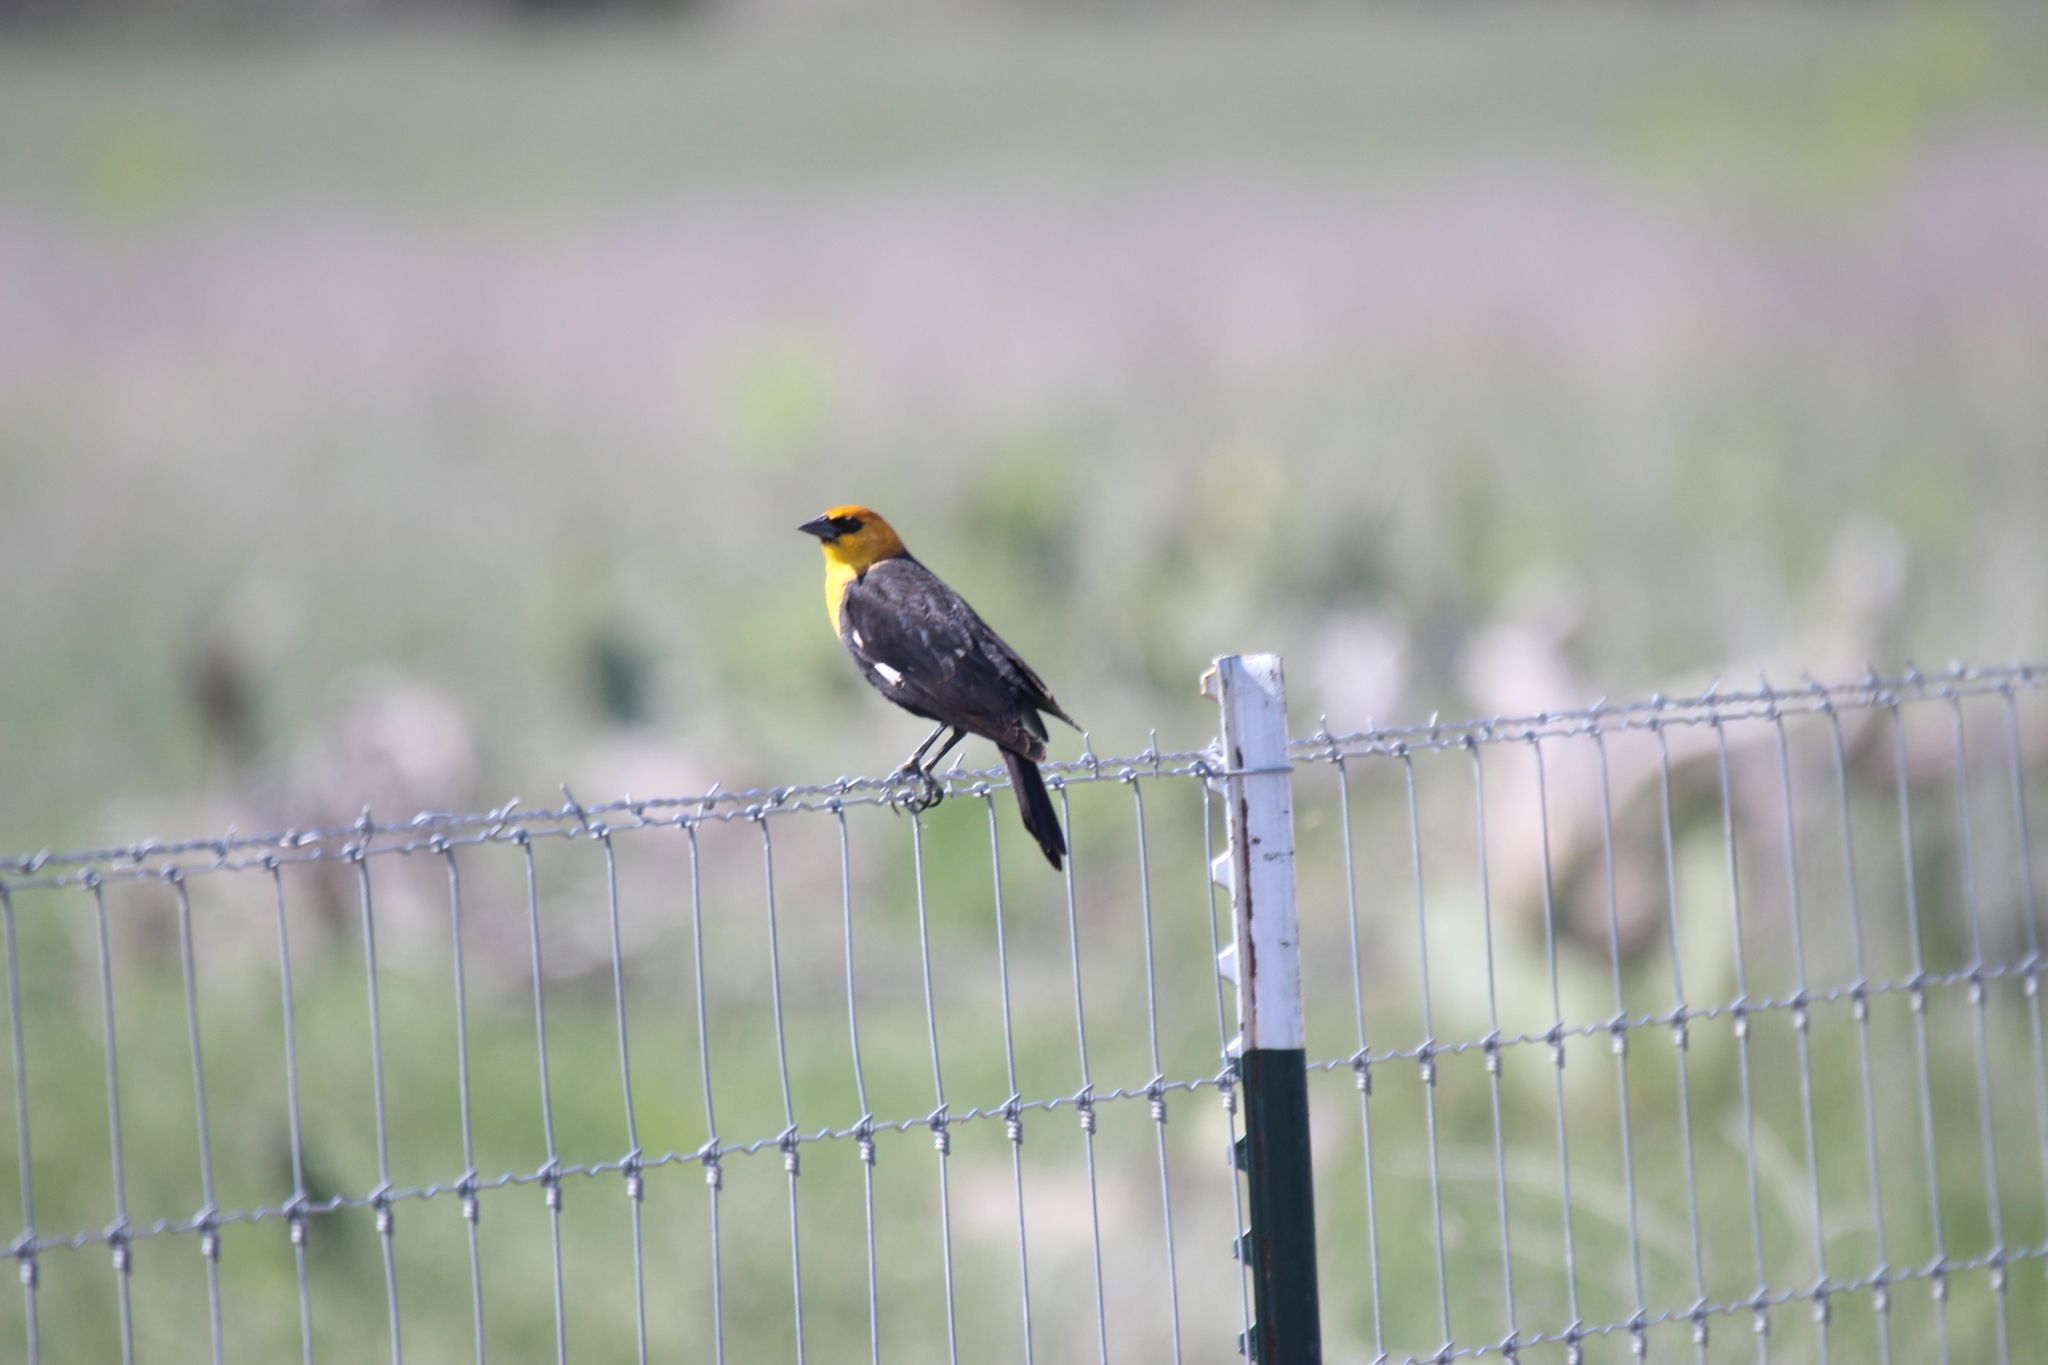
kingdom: Animalia
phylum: Chordata
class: Aves
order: Passeriformes
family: Icteridae
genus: Xanthocephalus
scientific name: Xanthocephalus xanthocephalus
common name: Yellow-headed blackbird
